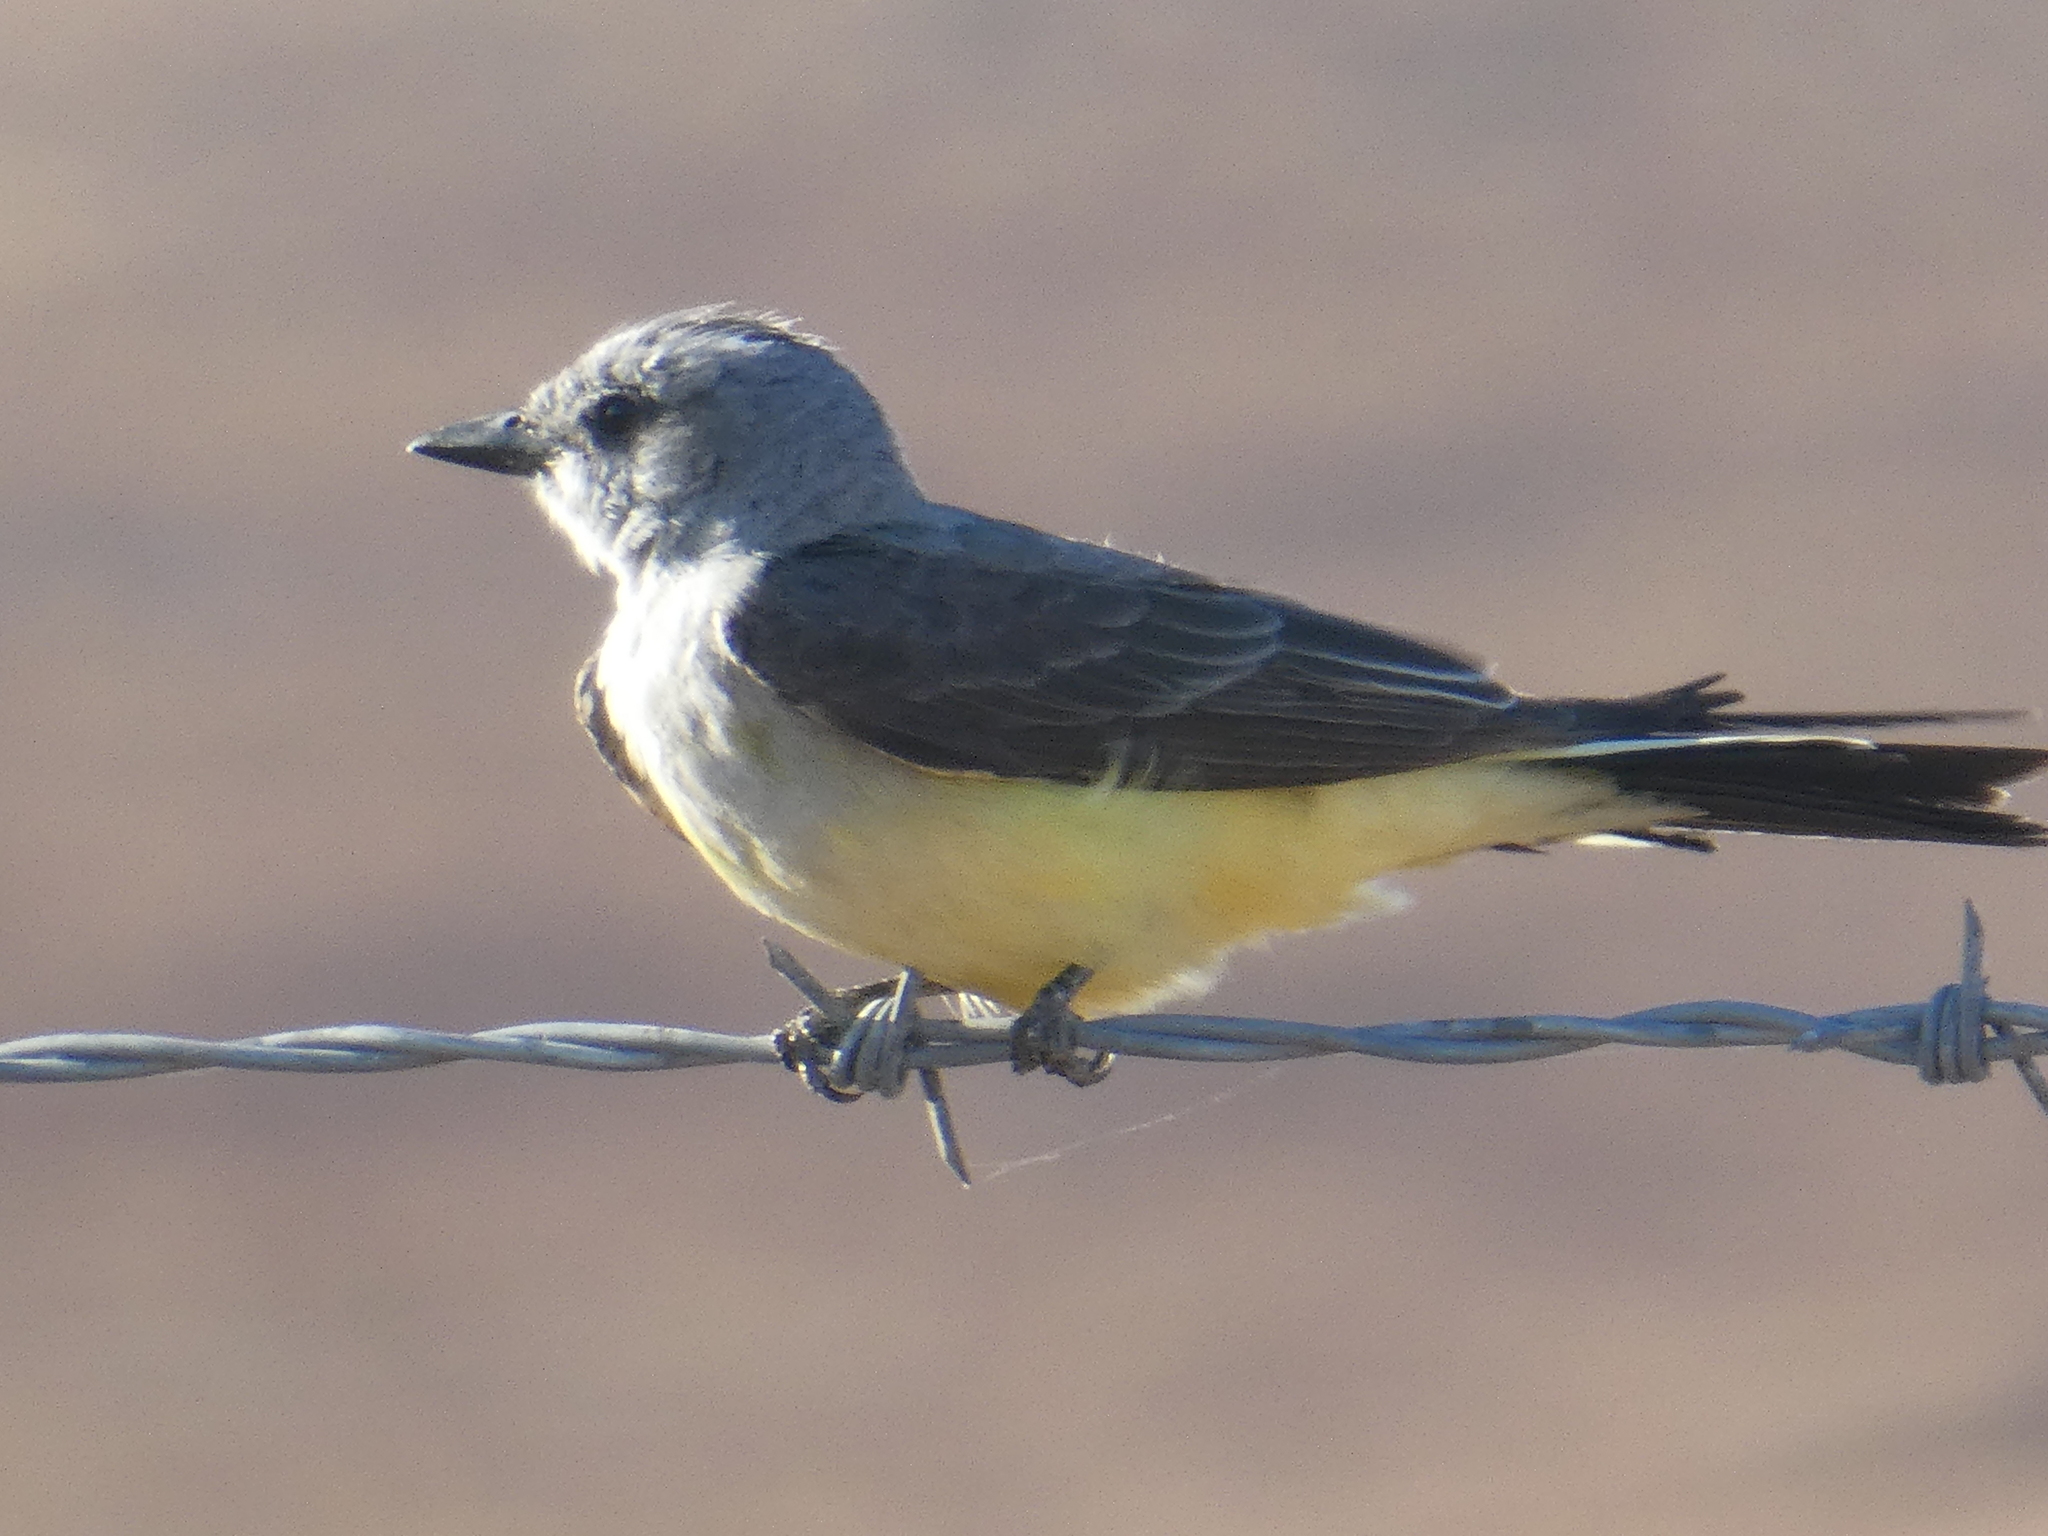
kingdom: Animalia
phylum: Chordata
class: Aves
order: Passeriformes
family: Tyrannidae
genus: Tyrannus
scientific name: Tyrannus verticalis
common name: Western kingbird
